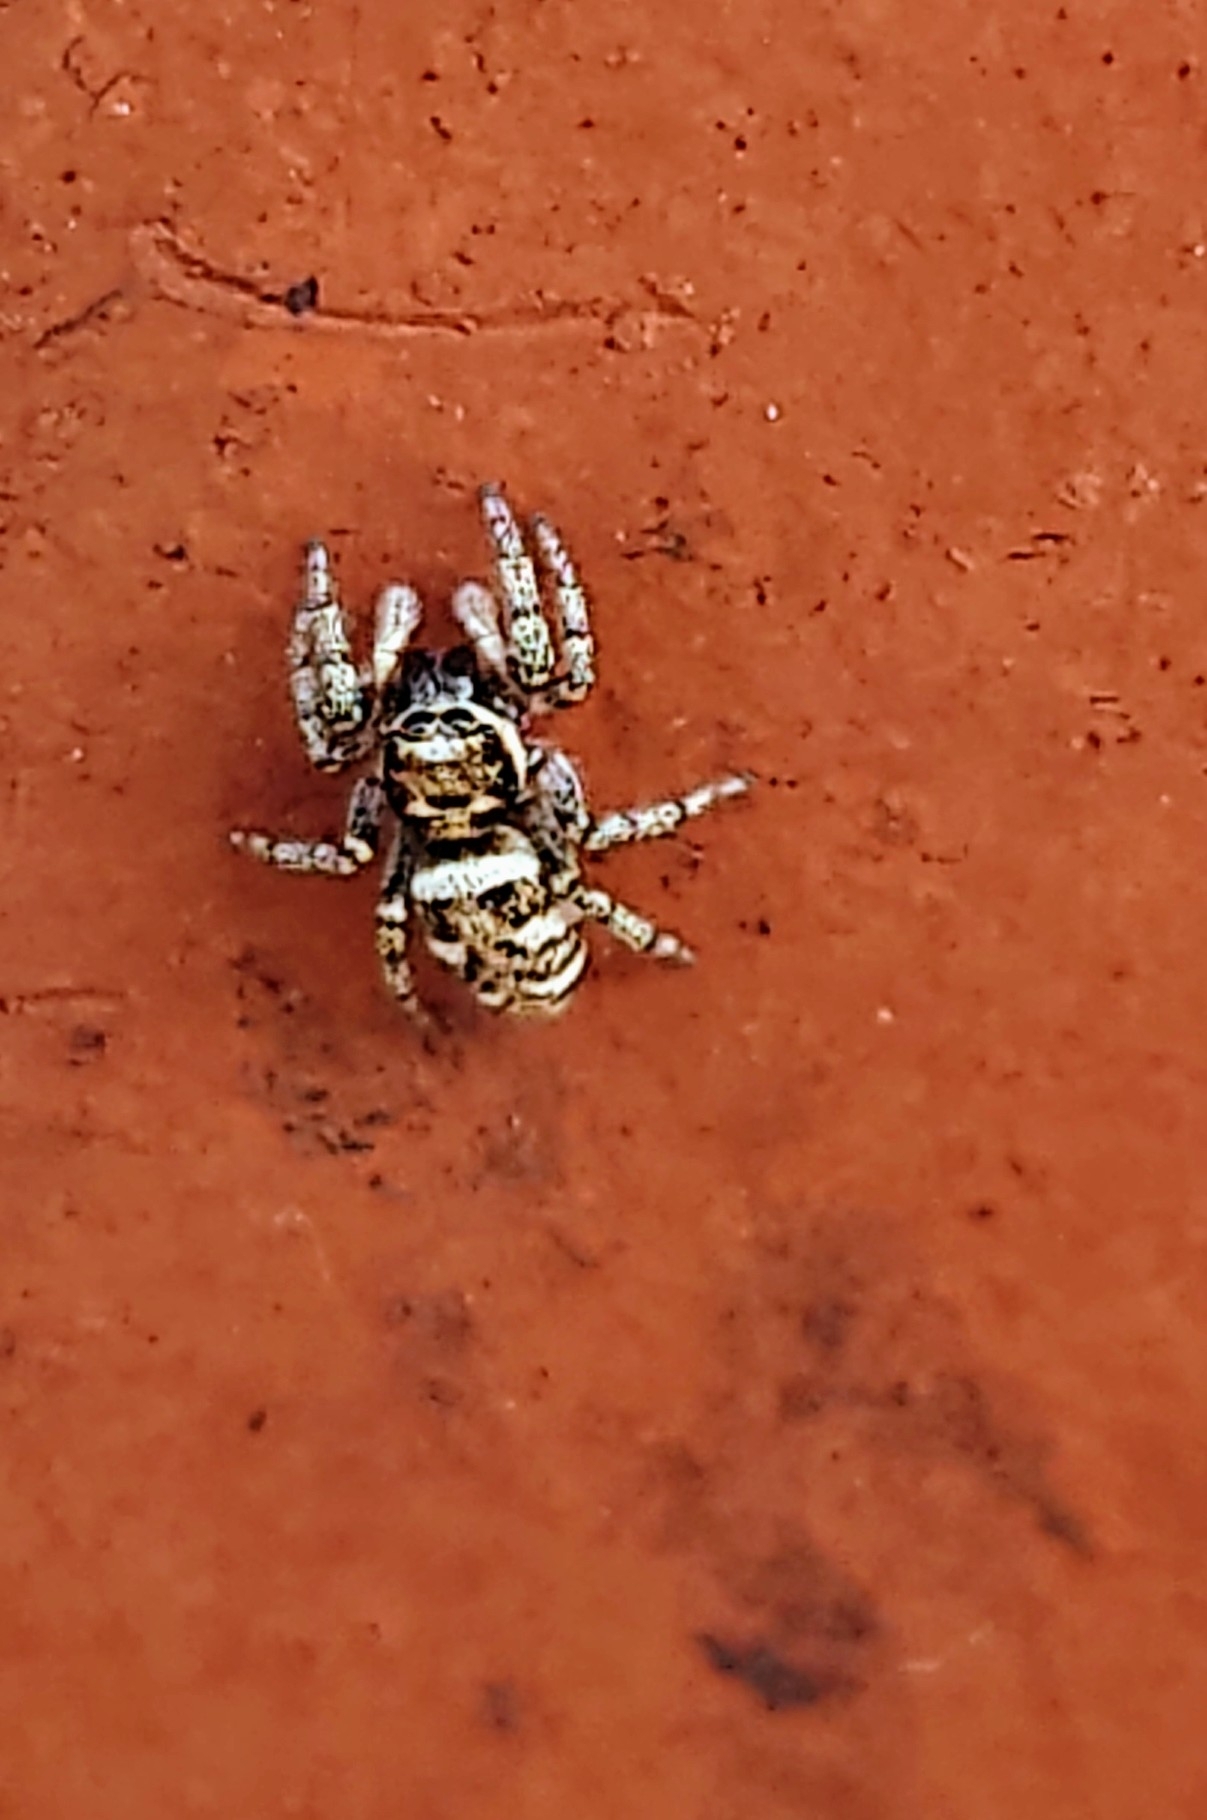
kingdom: Animalia
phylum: Arthropoda
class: Arachnida
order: Araneae
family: Salticidae
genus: Salticus
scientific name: Salticus scenicus
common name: Zebra jumper
